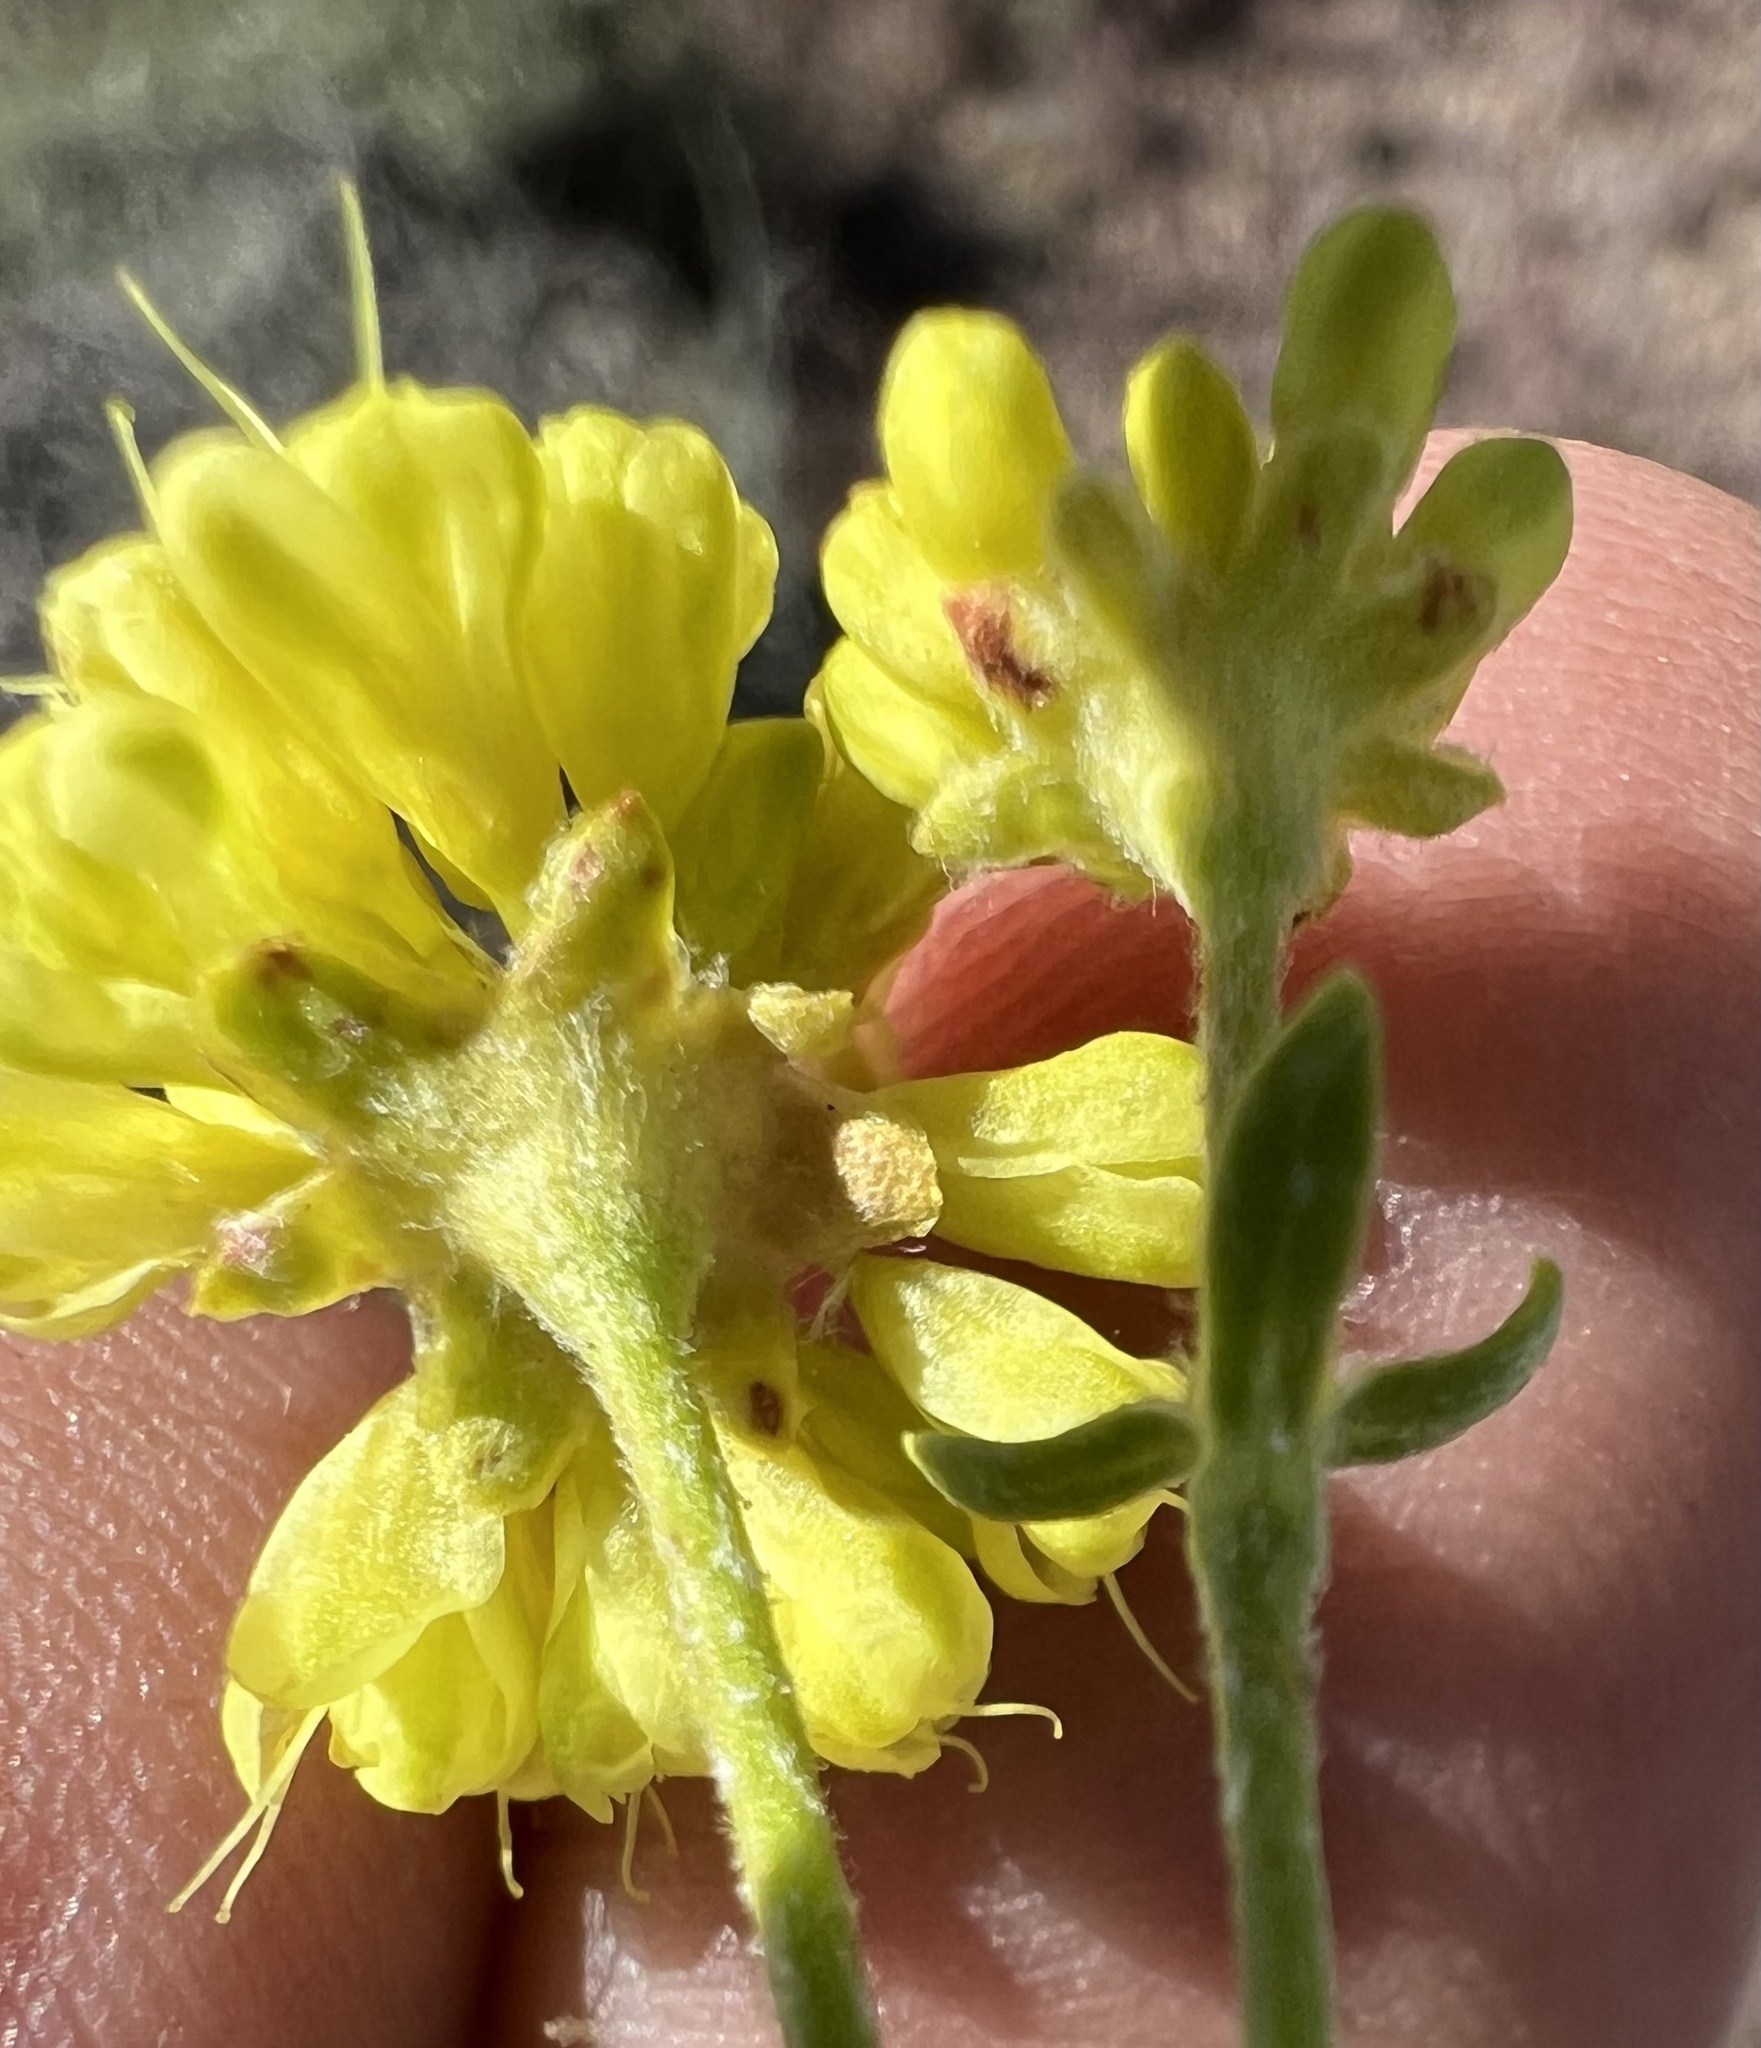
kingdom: Plantae
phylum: Tracheophyta
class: Magnoliopsida
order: Caryophyllales
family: Polygonaceae
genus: Eriogonum
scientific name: Eriogonum umbellatum
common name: Sulfur-buckwheat
